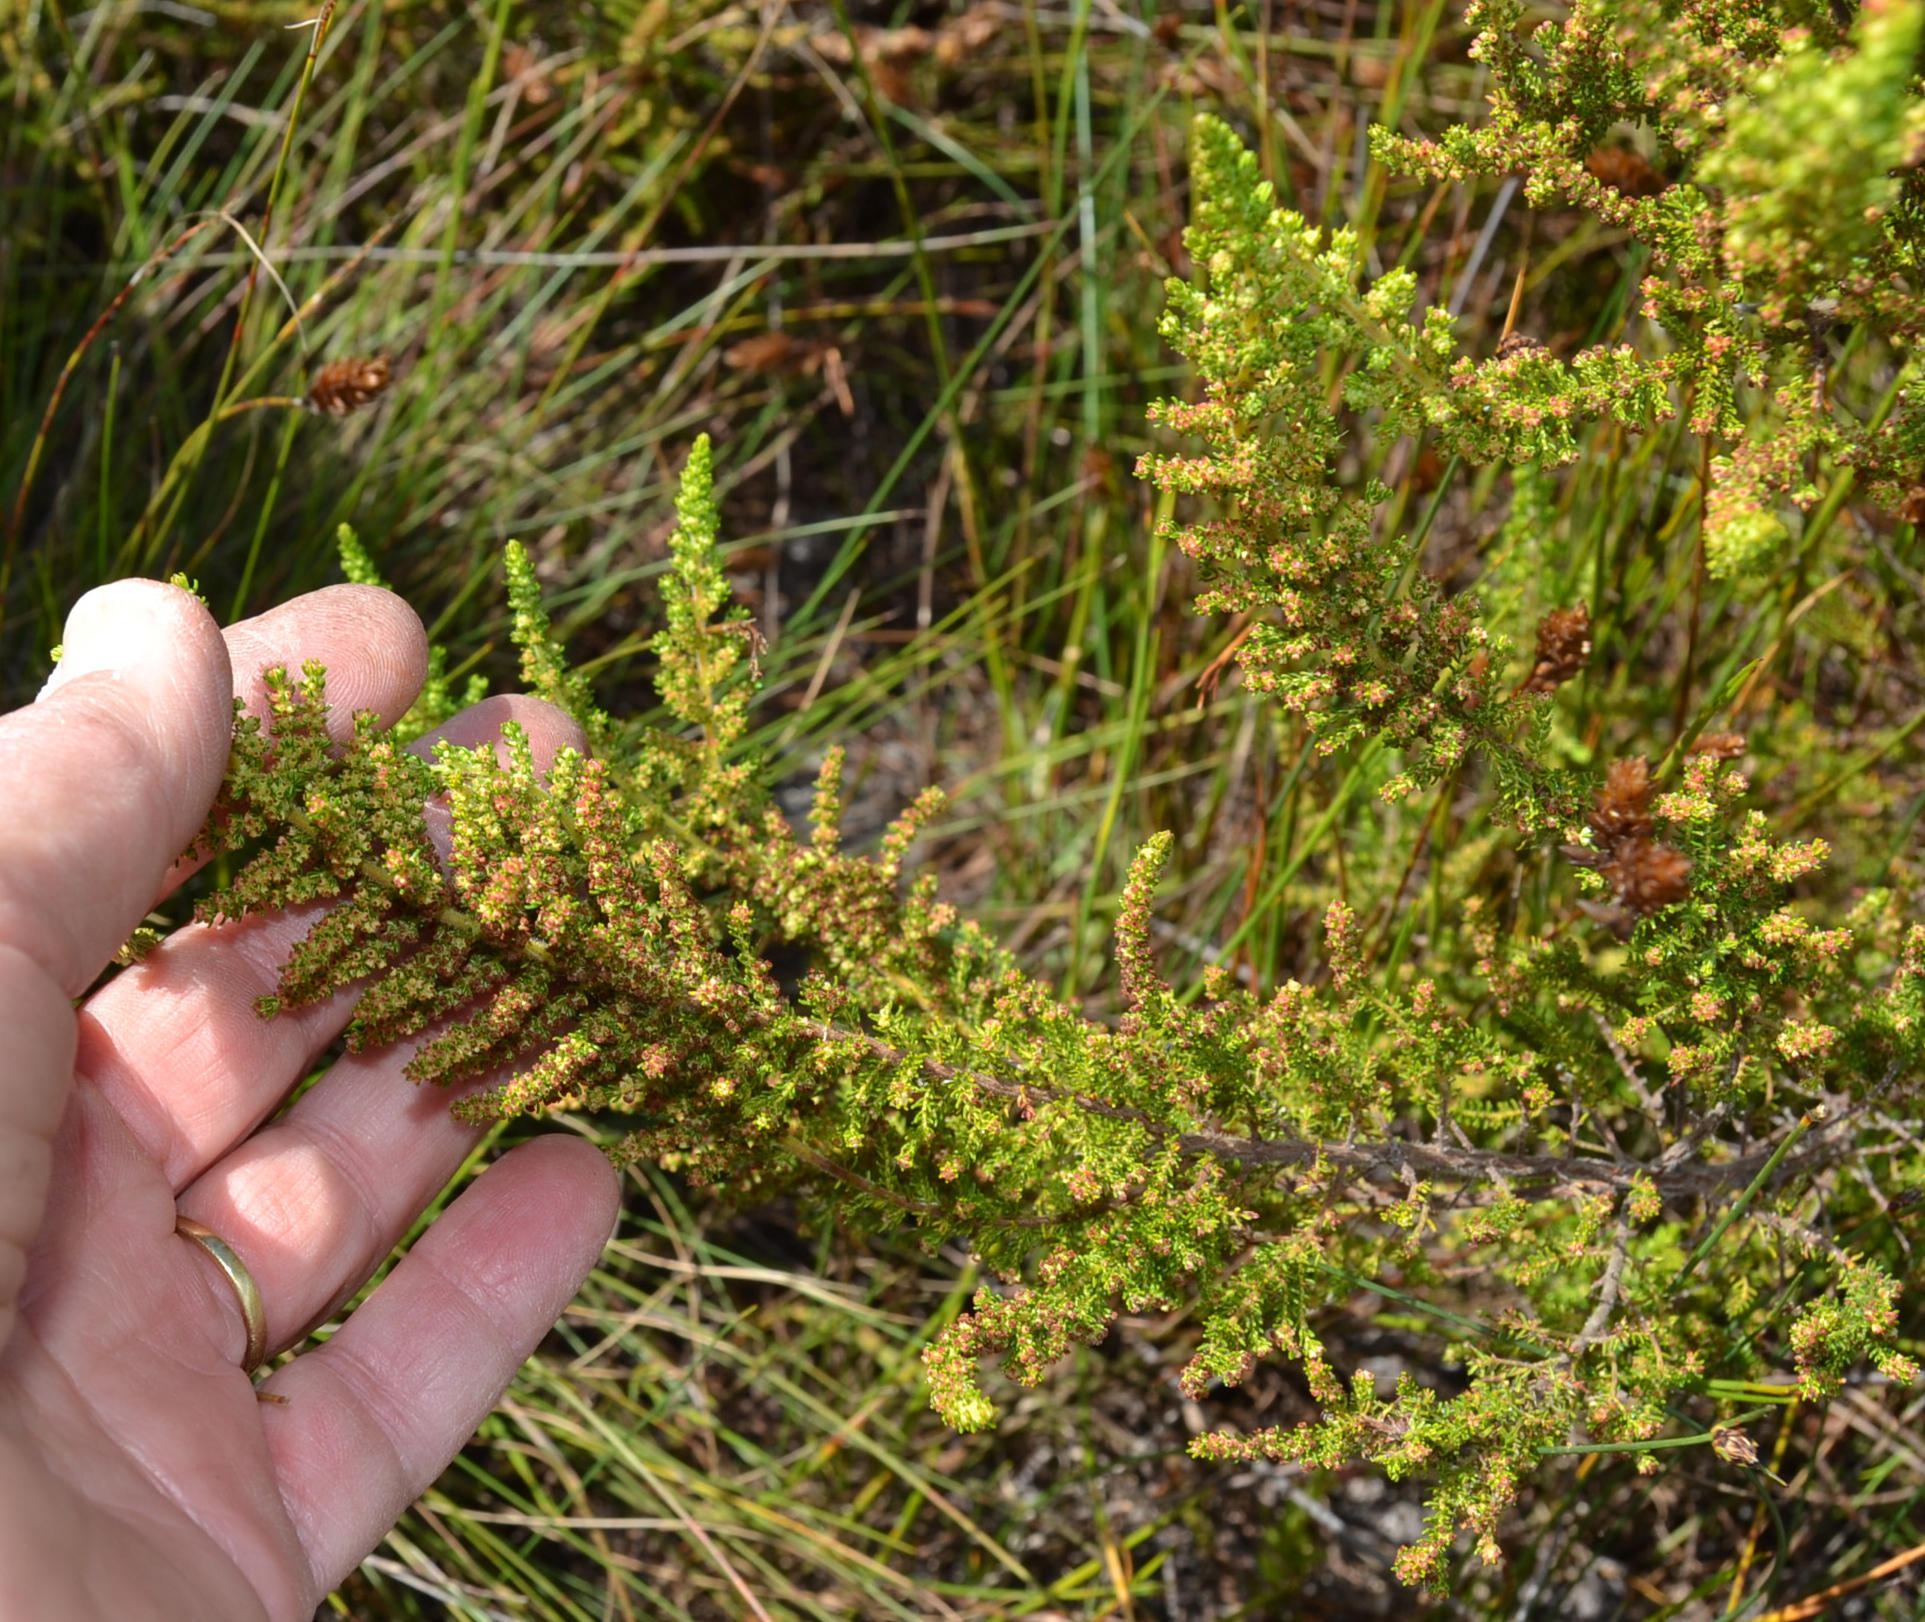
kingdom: Plantae
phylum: Tracheophyta
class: Magnoliopsida
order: Ericales
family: Ericaceae
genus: Erica
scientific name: Erica muscosa
